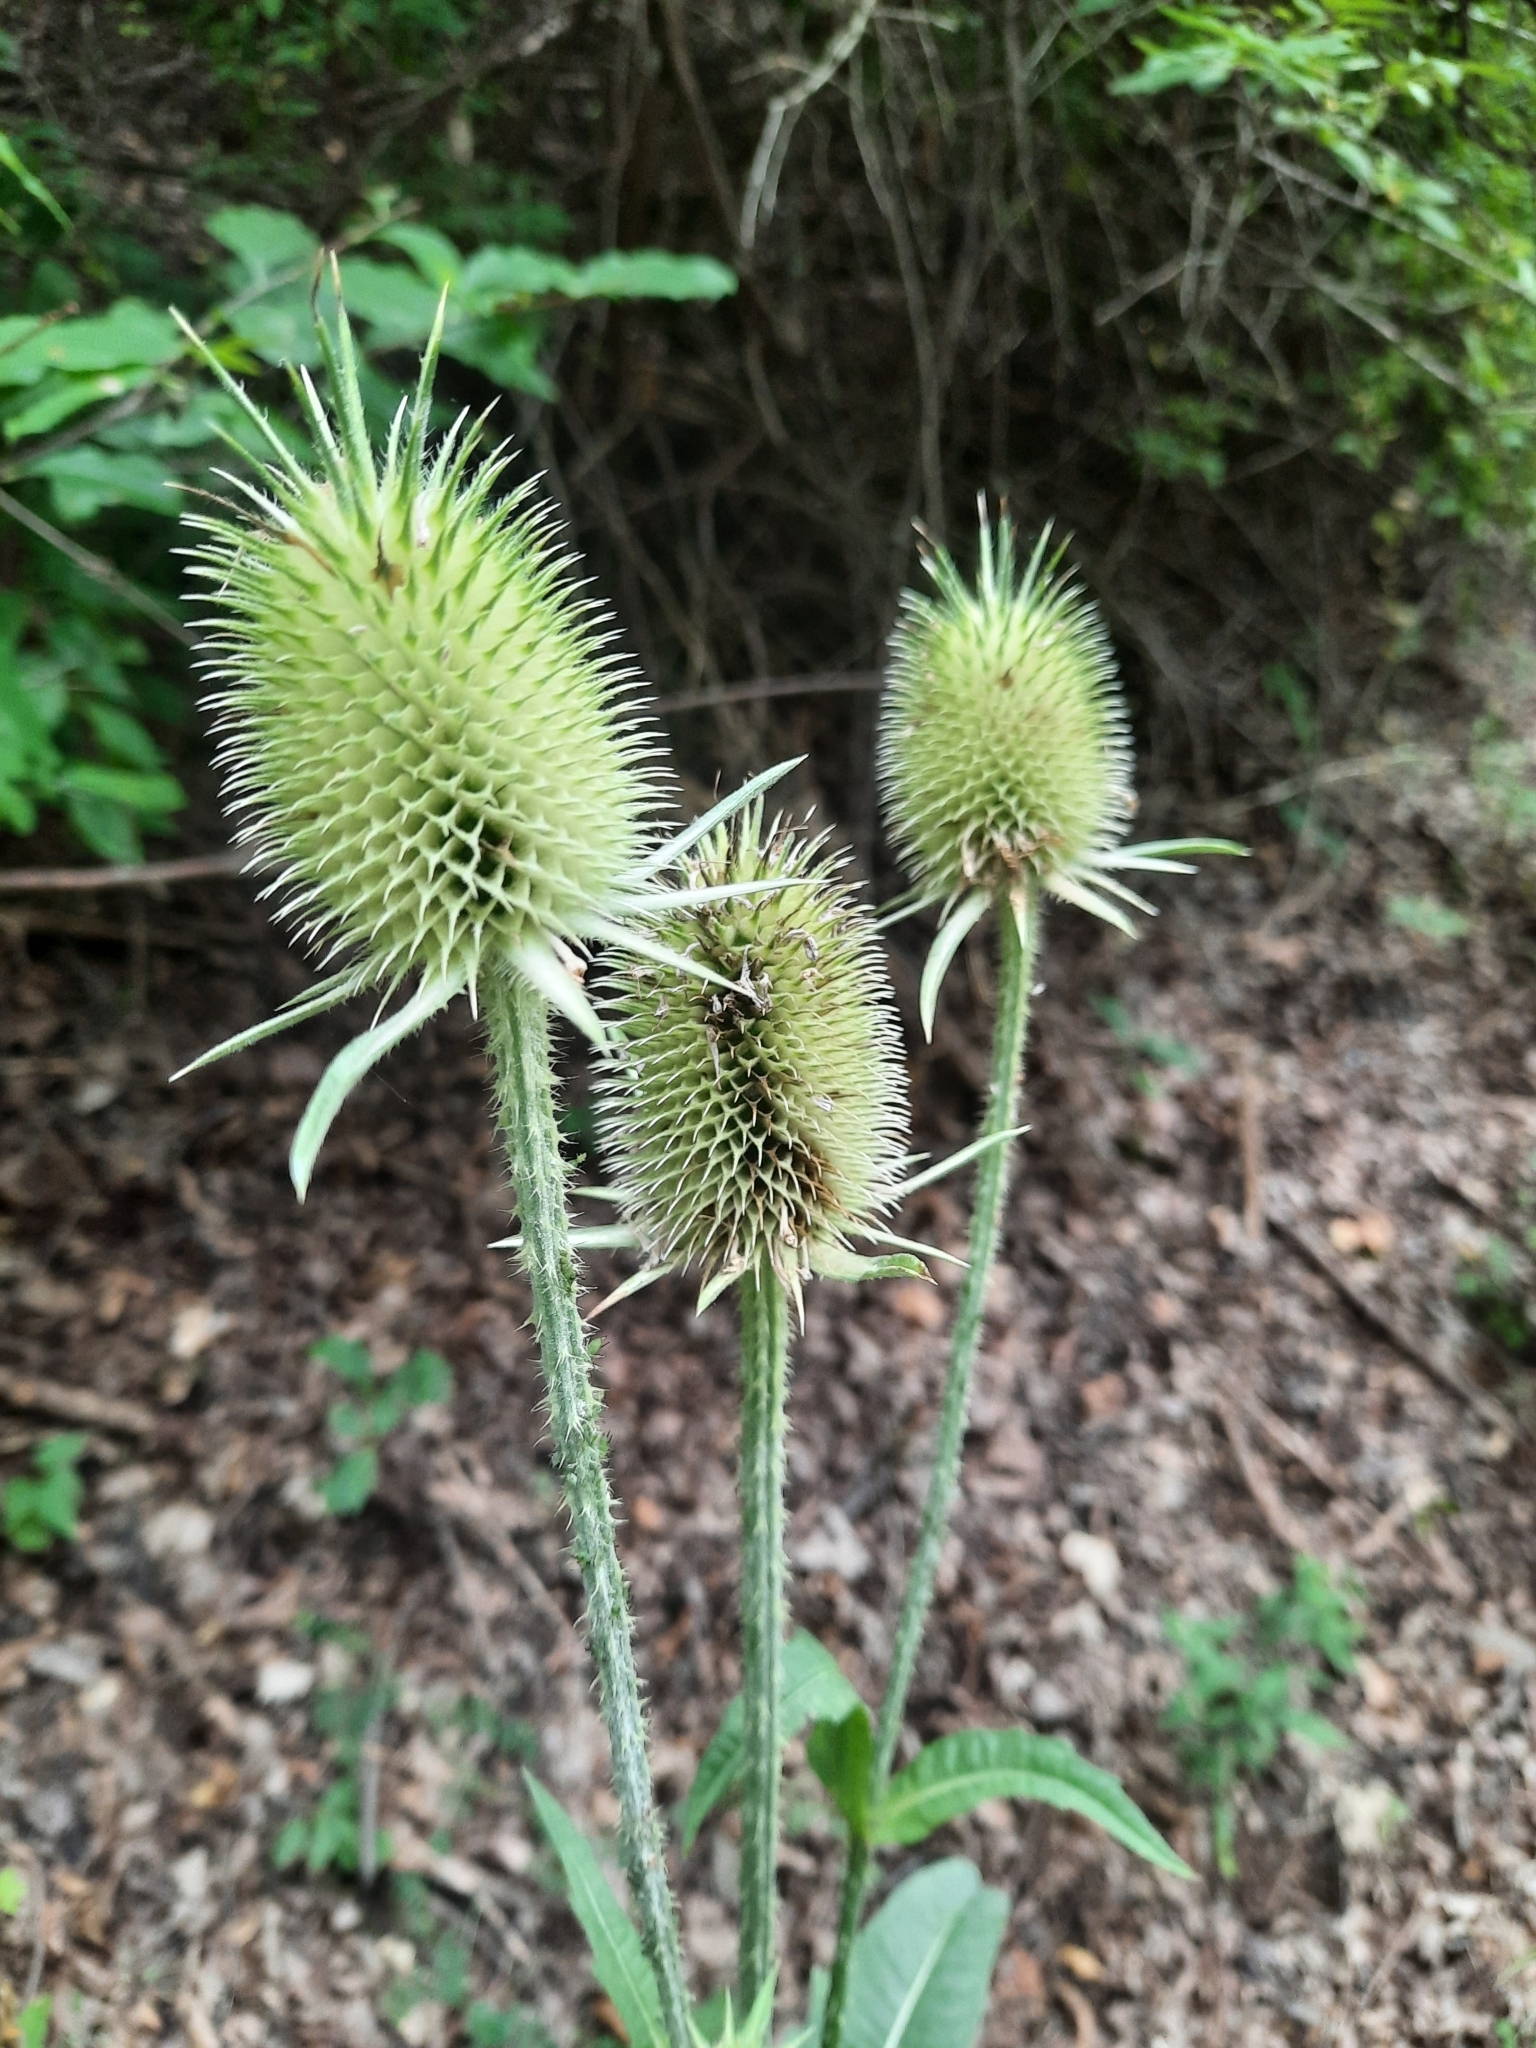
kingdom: Plantae
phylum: Tracheophyta
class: Magnoliopsida
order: Dipsacales
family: Caprifoliaceae
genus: Dipsacus
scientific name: Dipsacus laciniatus
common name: Cut-leaved teasel
